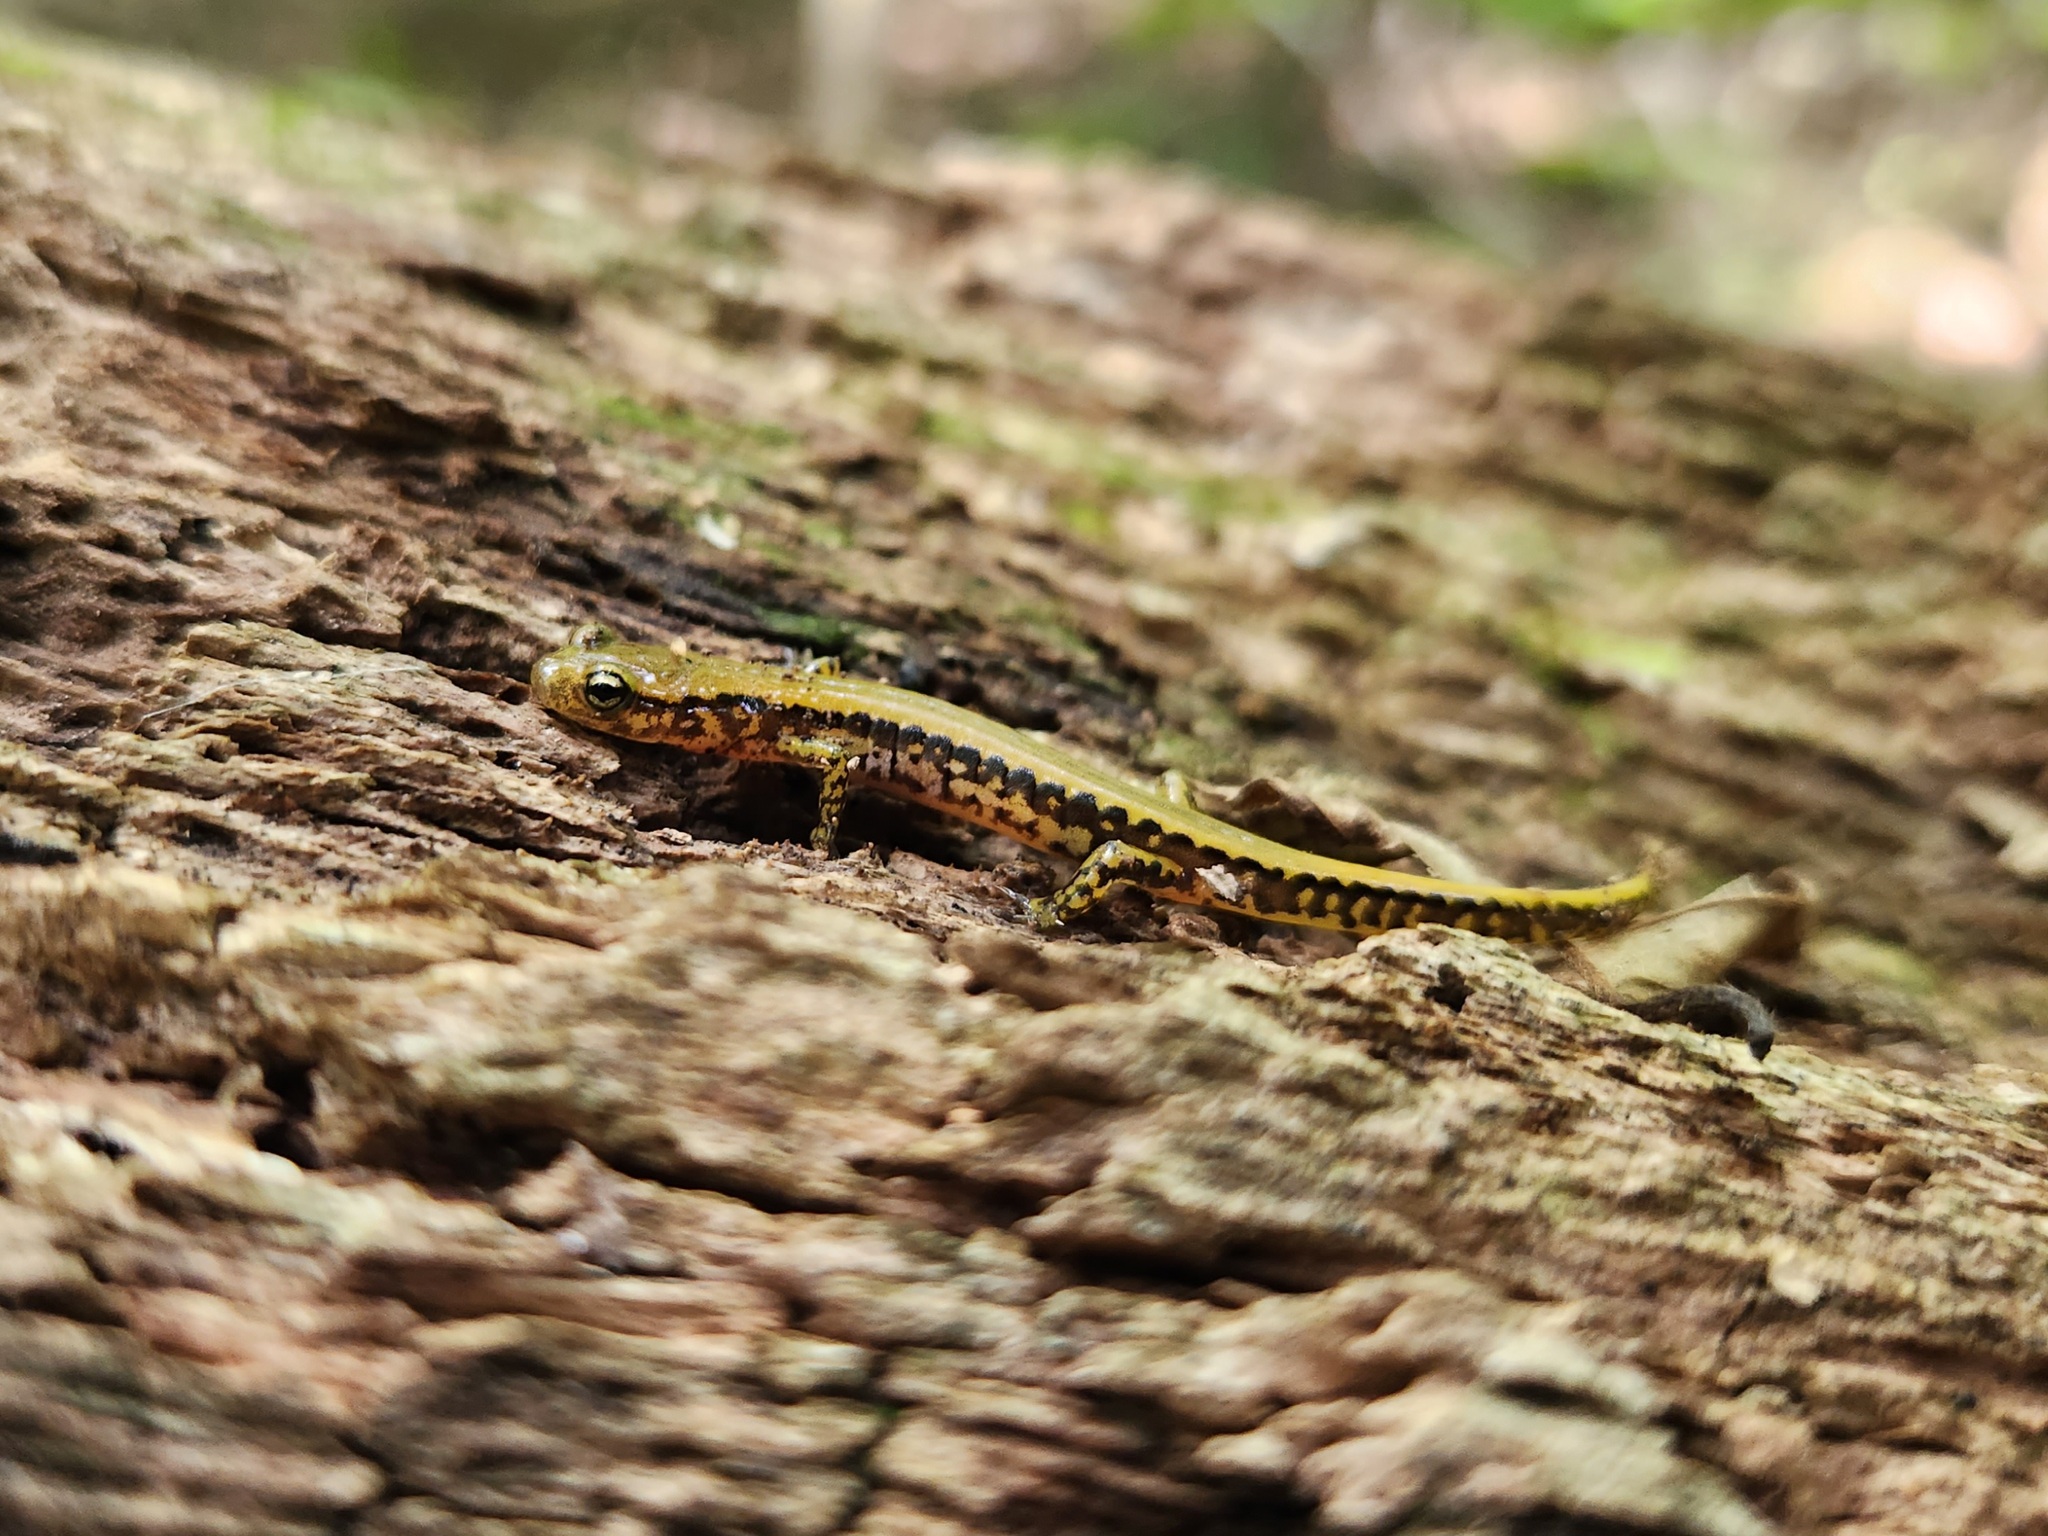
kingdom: Animalia
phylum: Chordata
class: Amphibia
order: Caudata
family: Plethodontidae
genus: Eurycea
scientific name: Eurycea longicauda
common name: Long-tailed salamander
